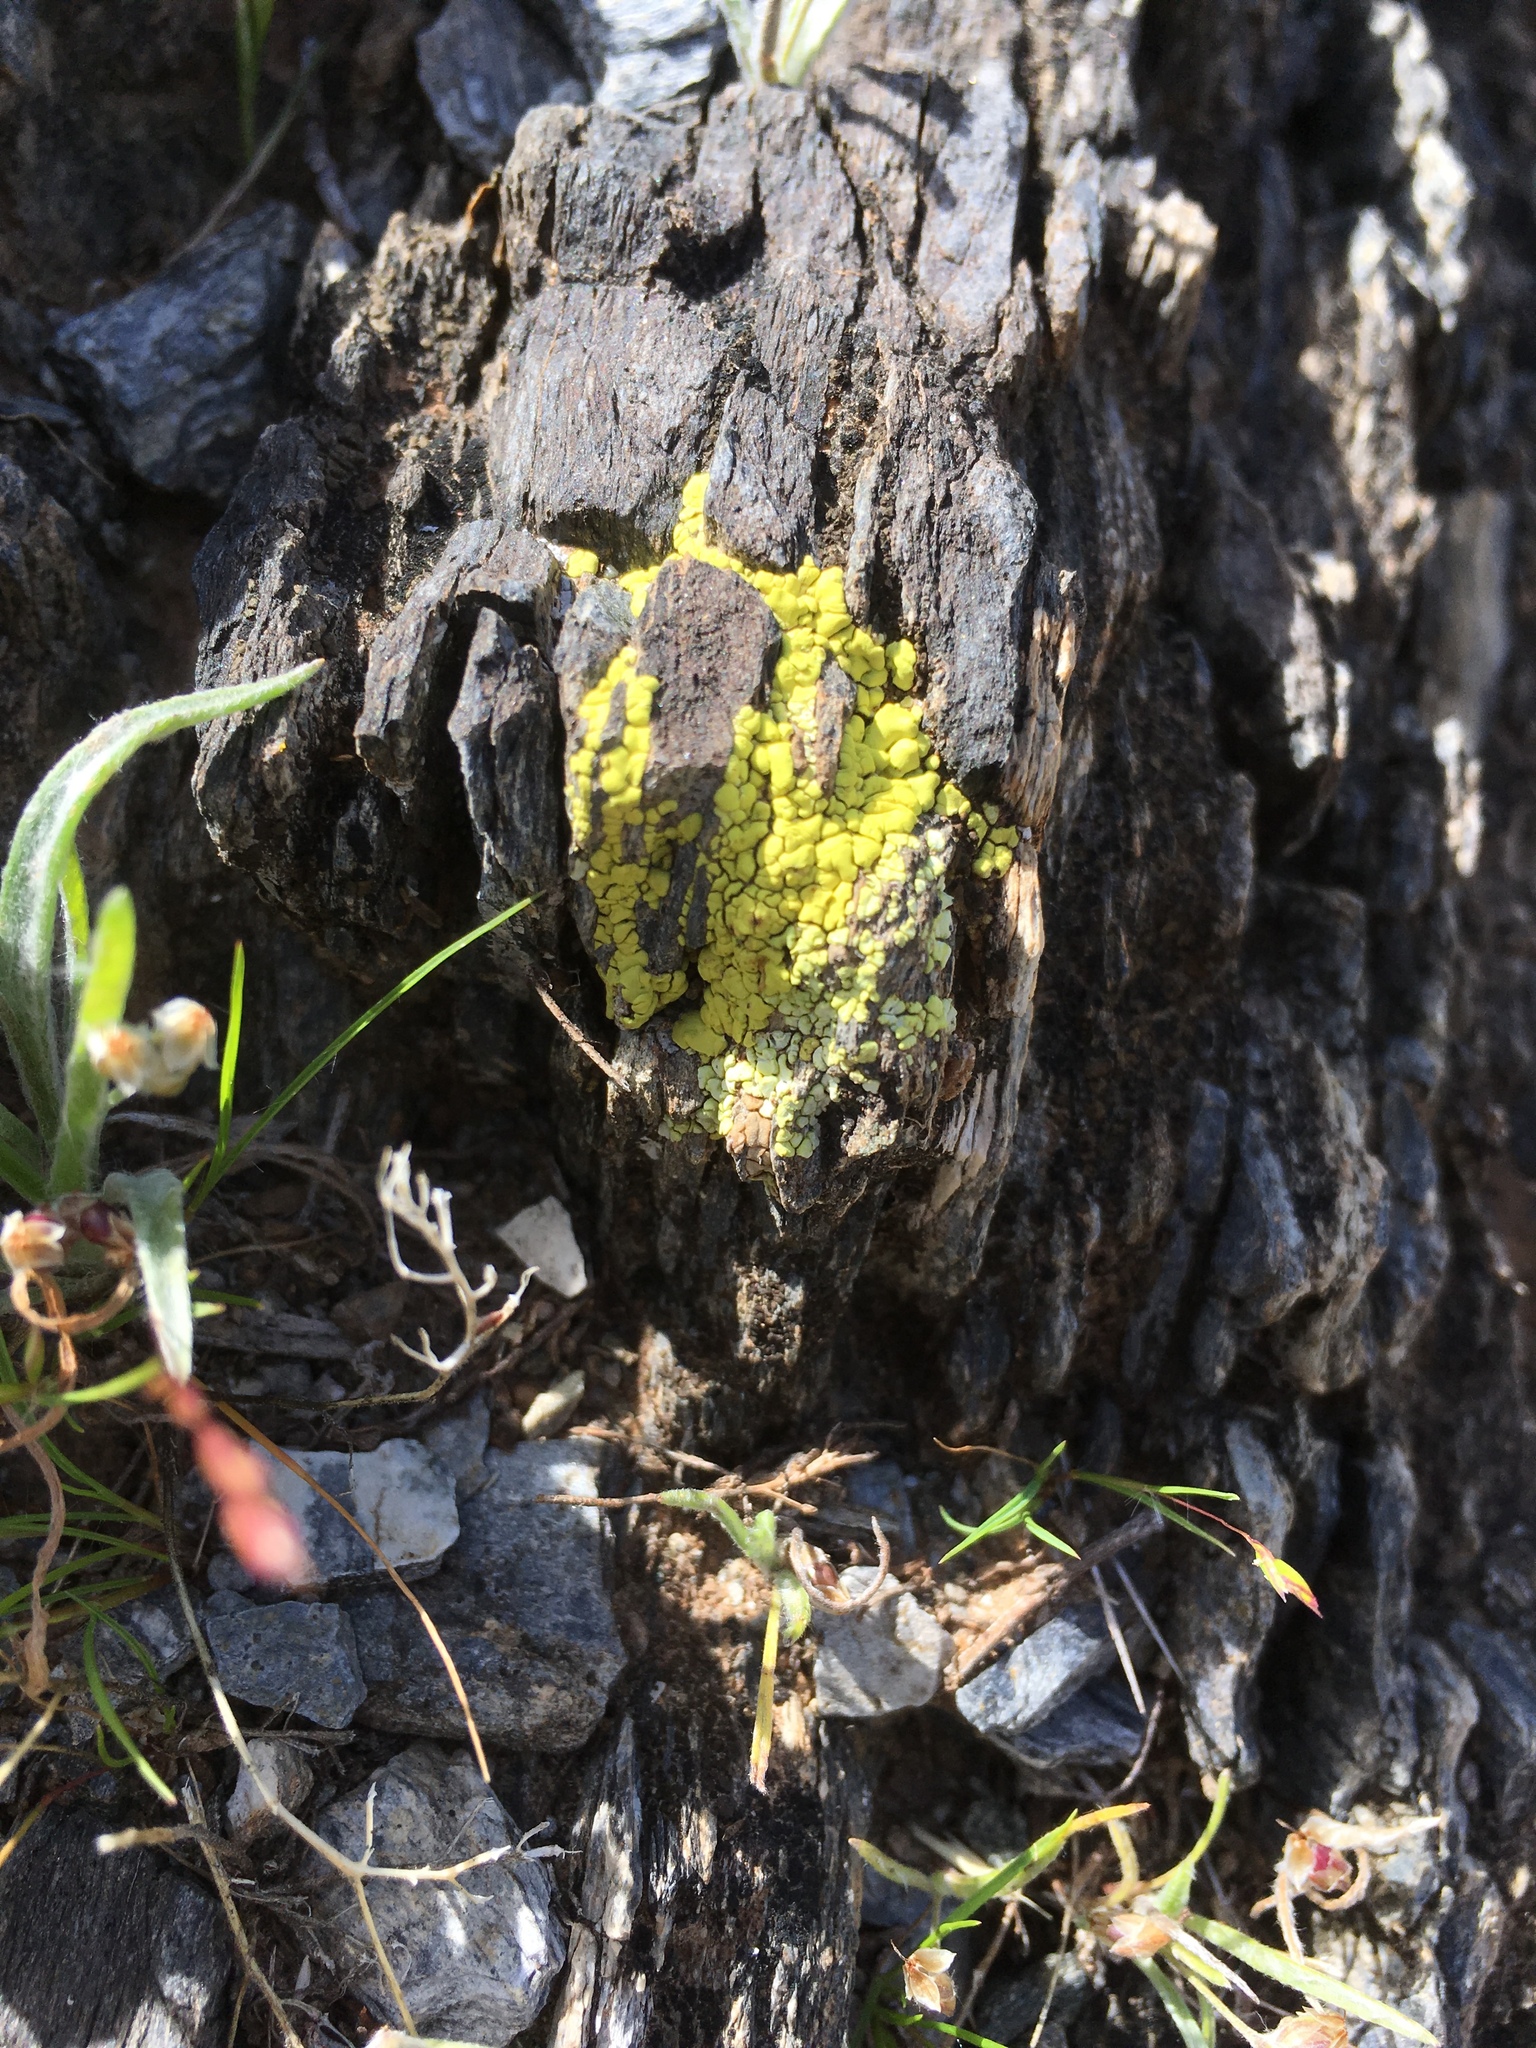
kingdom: Fungi
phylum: Ascomycota
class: Lecanoromycetes
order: Acarosporales
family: Acarosporaceae
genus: Acarospora
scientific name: Acarospora socialis
